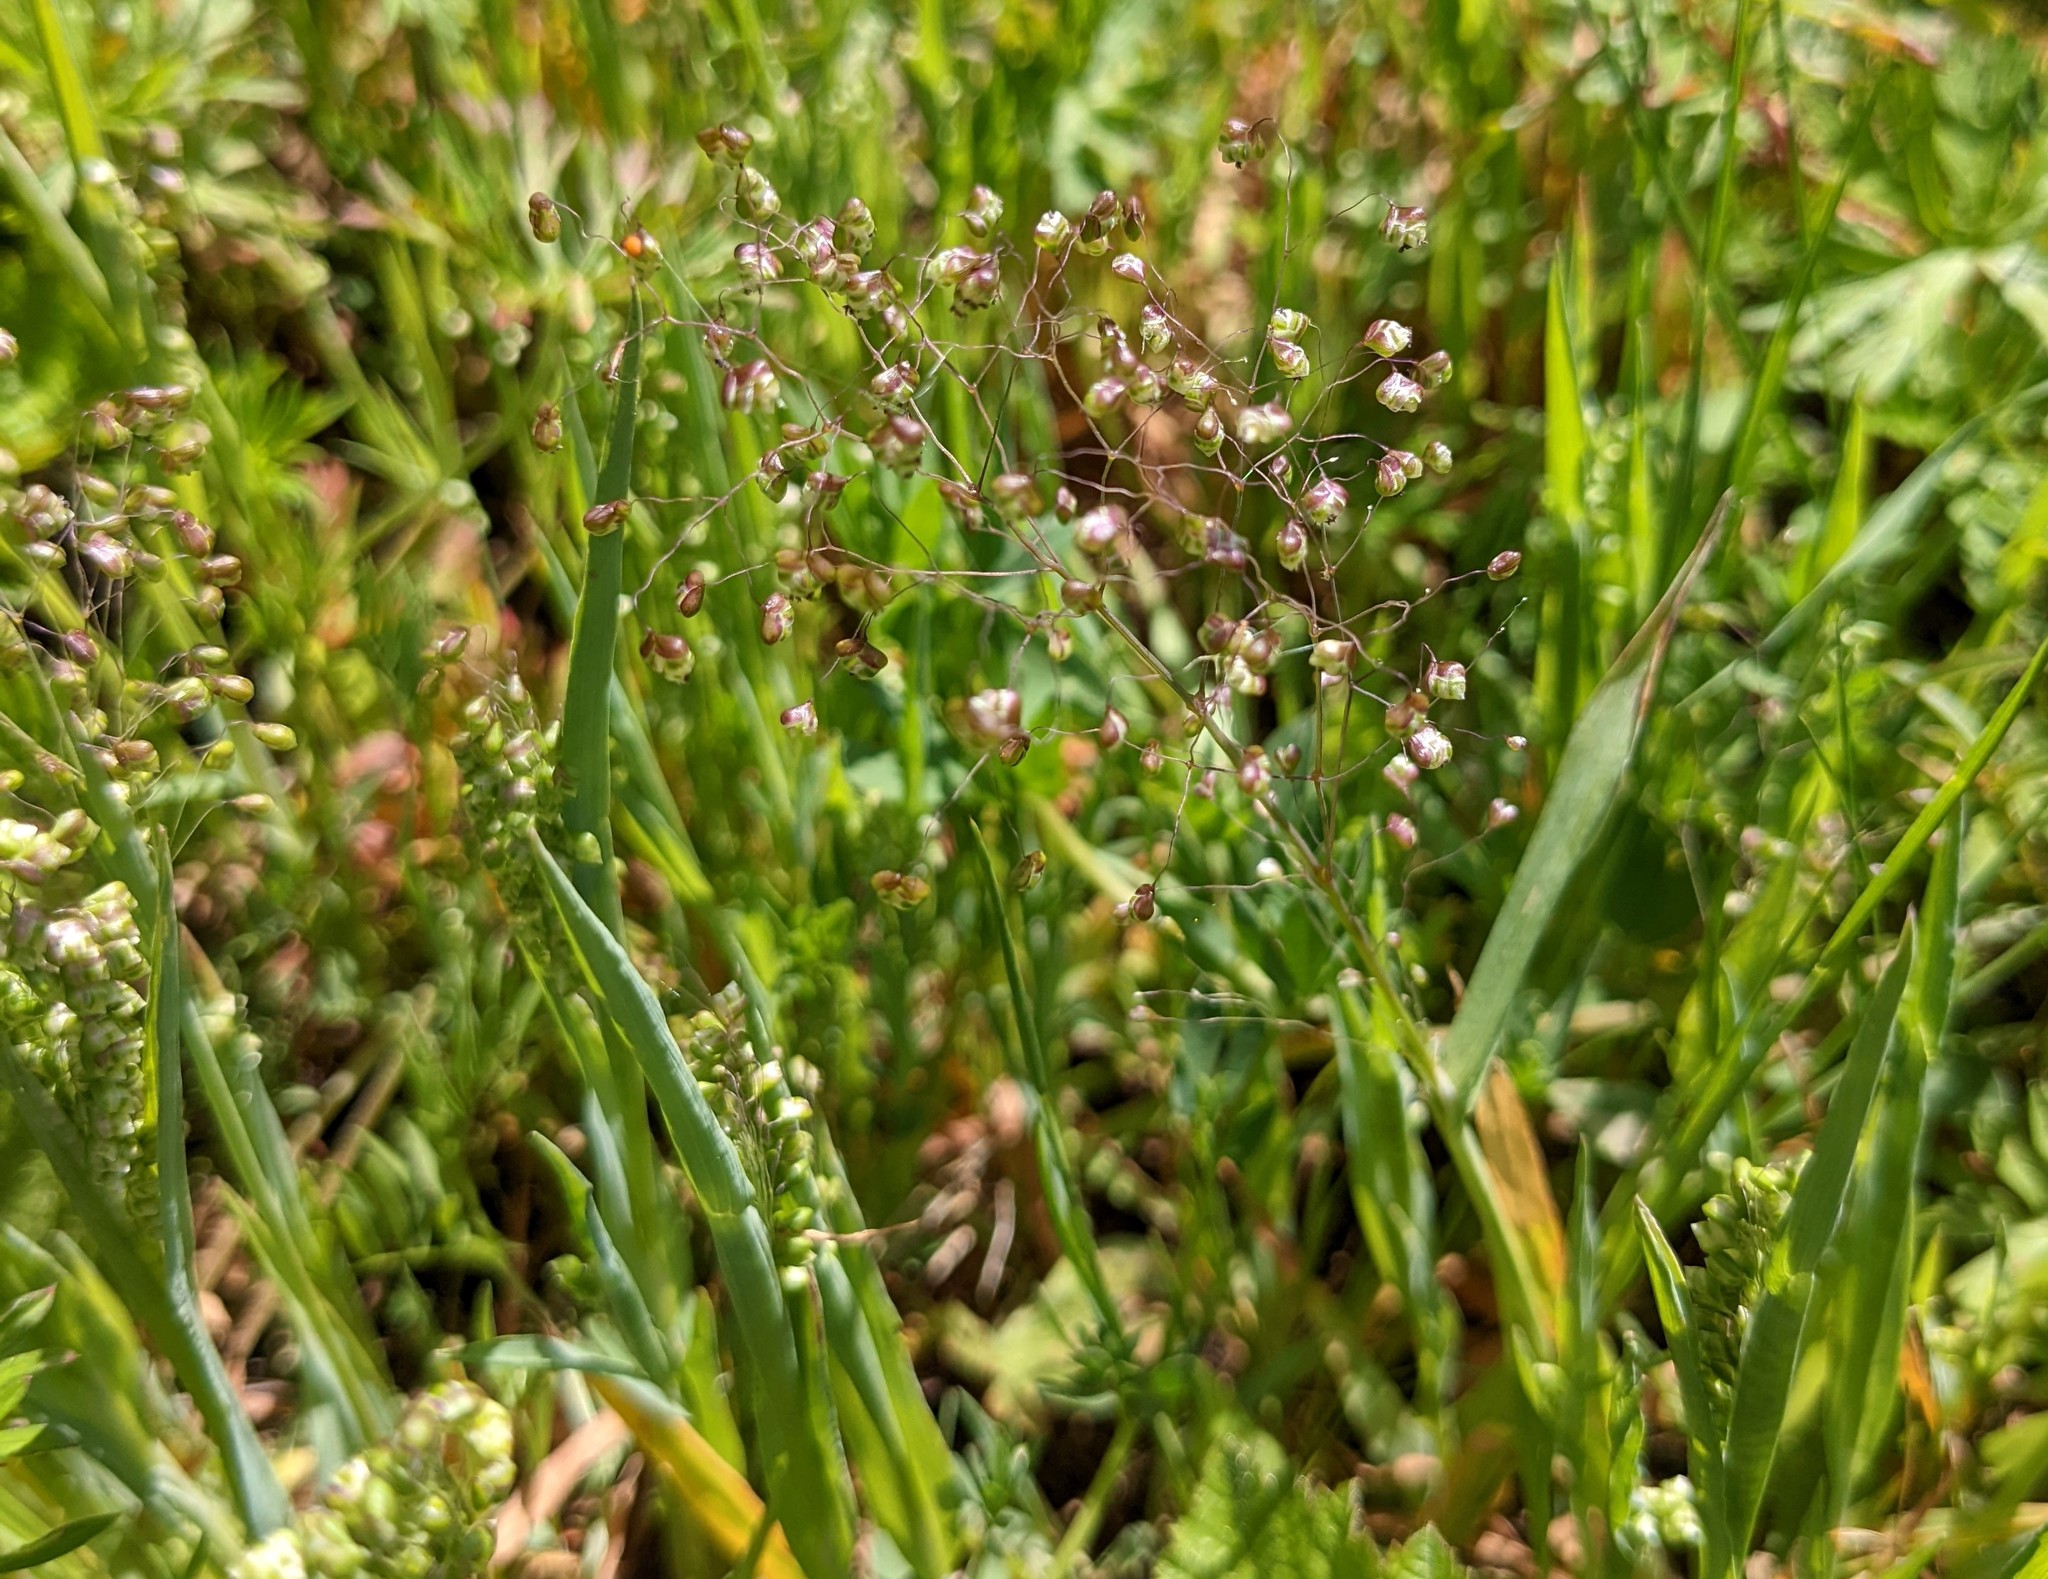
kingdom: Plantae
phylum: Tracheophyta
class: Liliopsida
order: Poales
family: Poaceae
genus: Briza
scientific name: Briza minor
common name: Lesser quaking-grass
